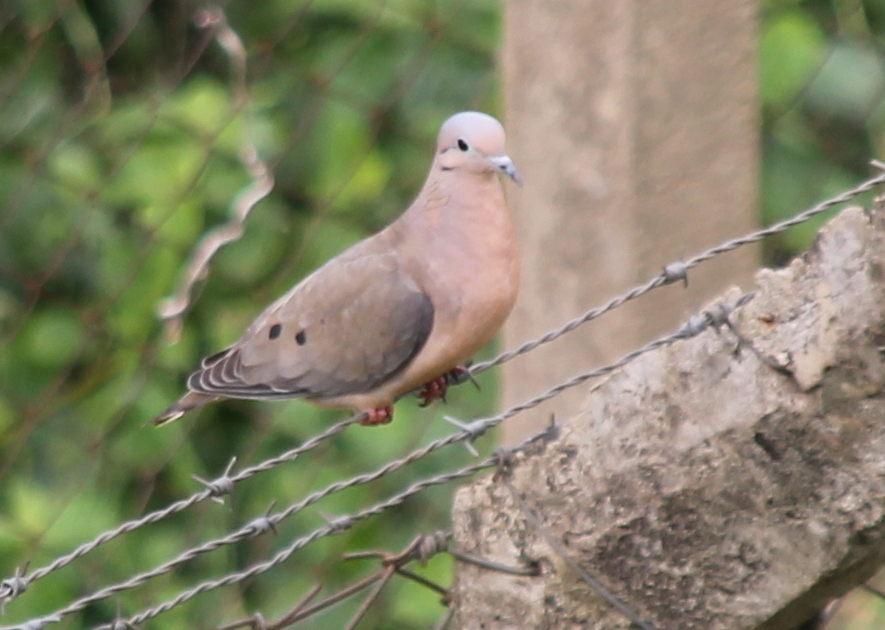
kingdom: Animalia
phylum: Chordata
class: Aves
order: Columbiformes
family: Columbidae
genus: Zenaida
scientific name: Zenaida auriculata
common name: Eared dove
